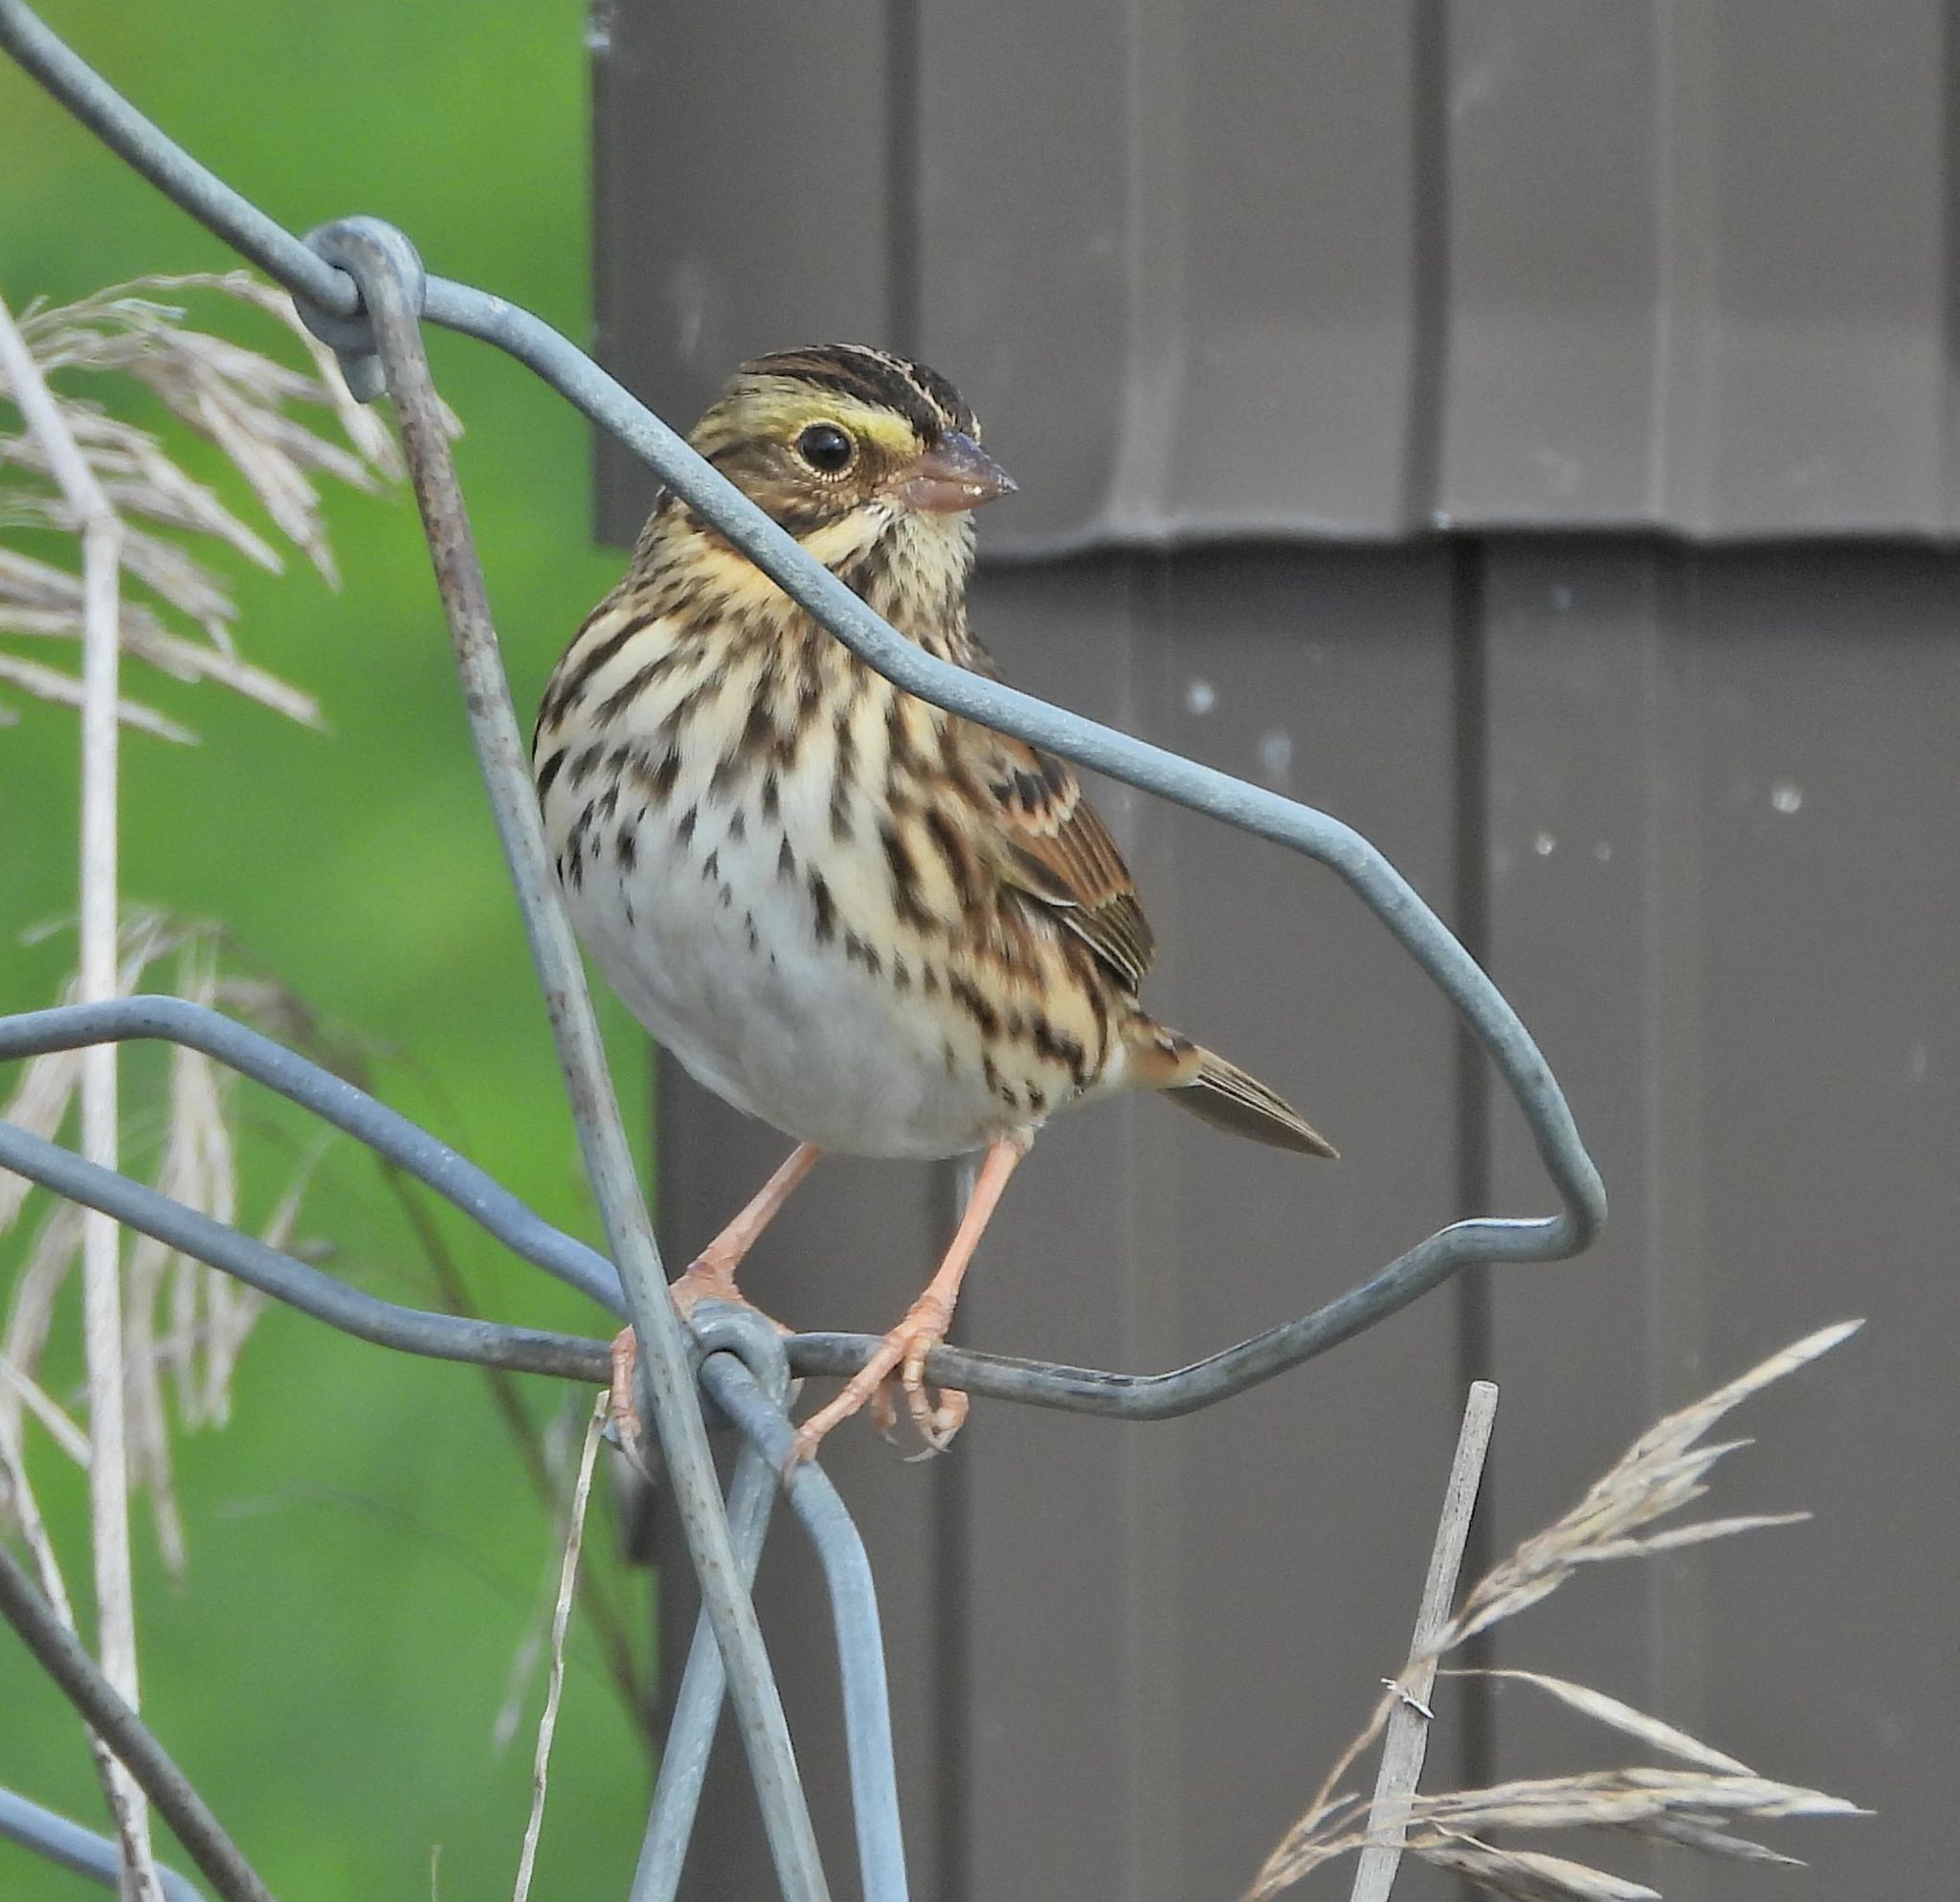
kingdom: Animalia
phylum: Chordata
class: Aves
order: Passeriformes
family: Passerellidae
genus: Passerculus
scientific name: Passerculus sandwichensis
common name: Savannah sparrow
